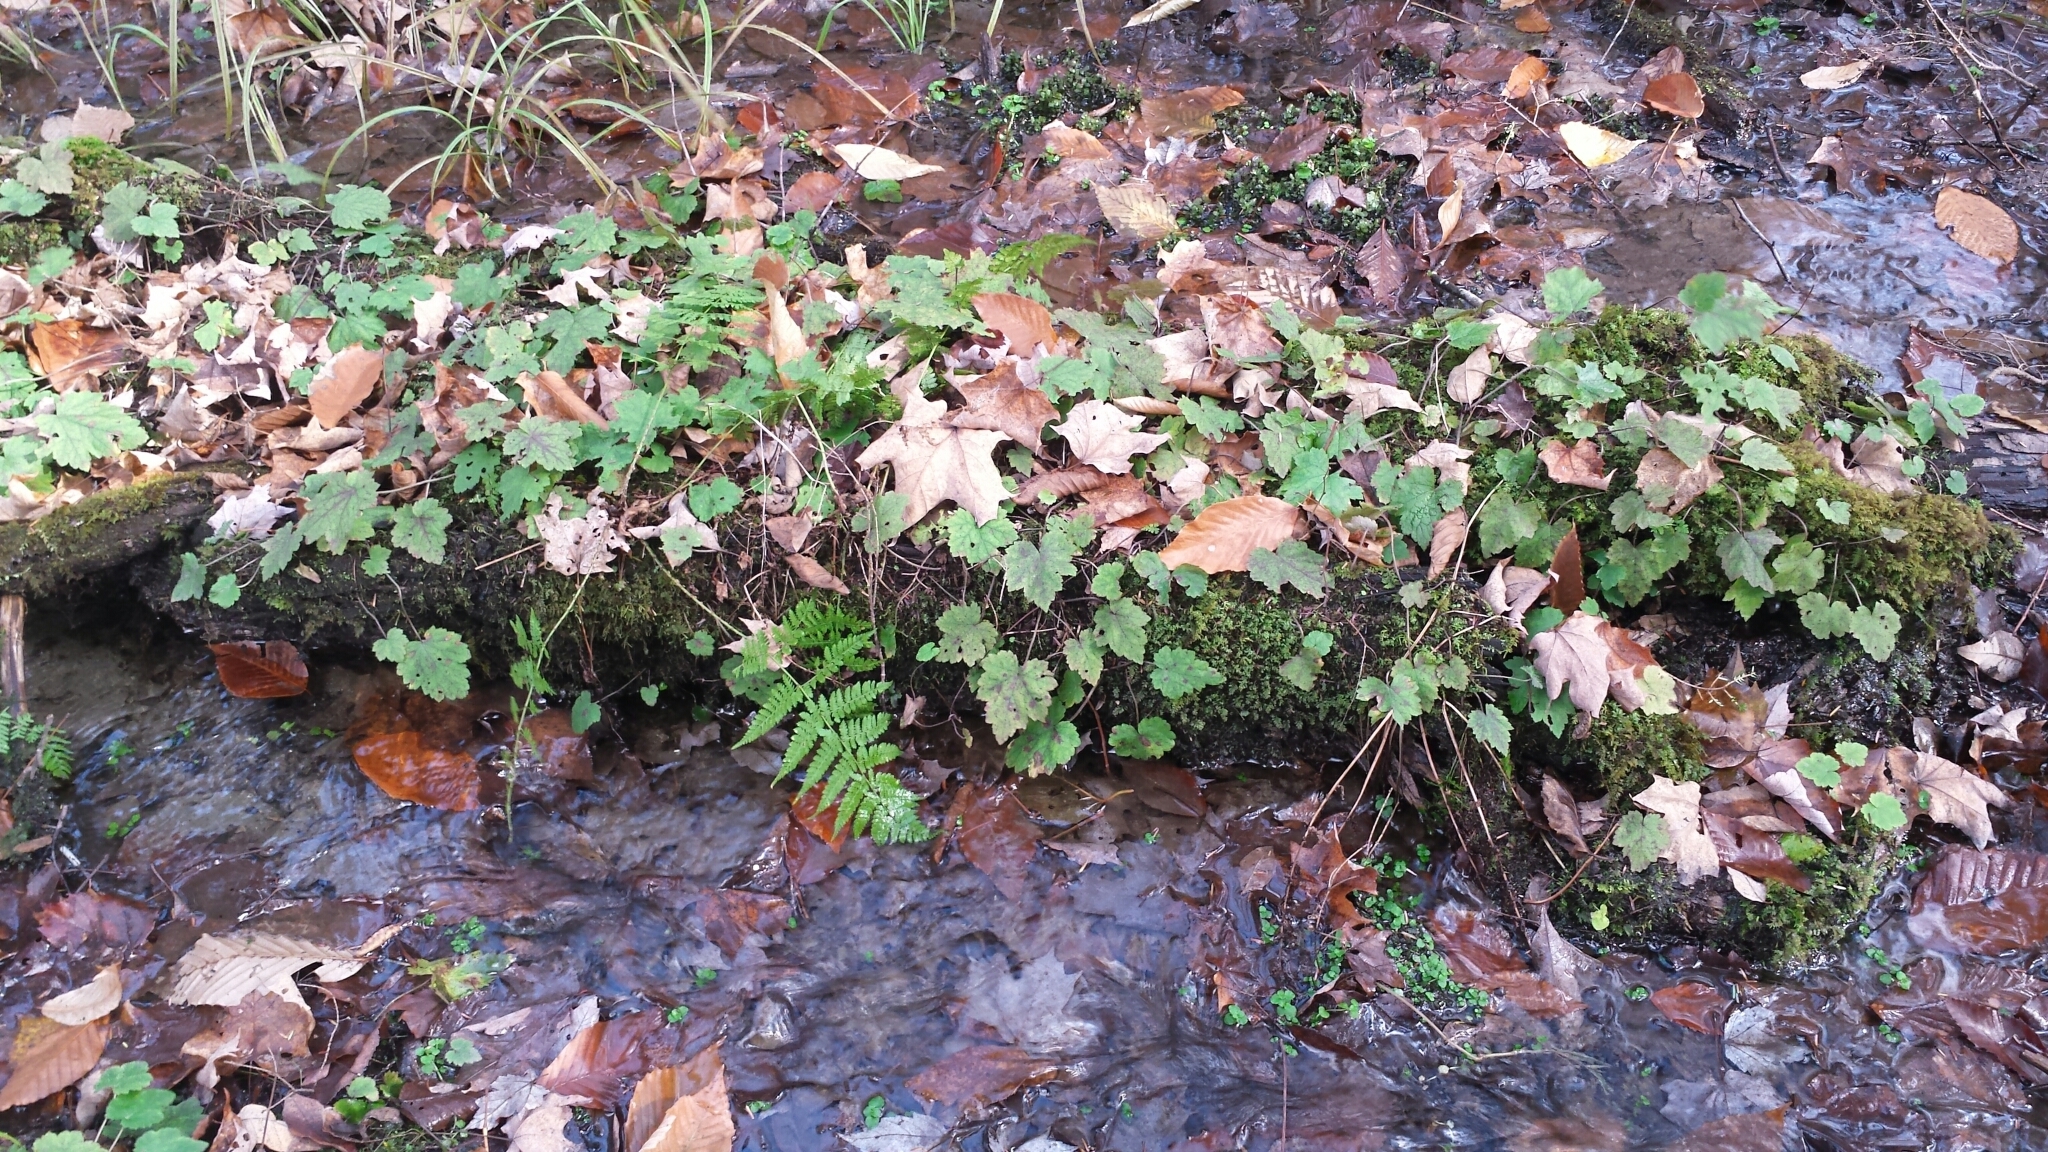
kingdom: Plantae
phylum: Tracheophyta
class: Magnoliopsida
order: Saxifragales
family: Saxifragaceae
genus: Tiarella
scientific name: Tiarella stolonifera
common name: Stoloniferous foamflower
